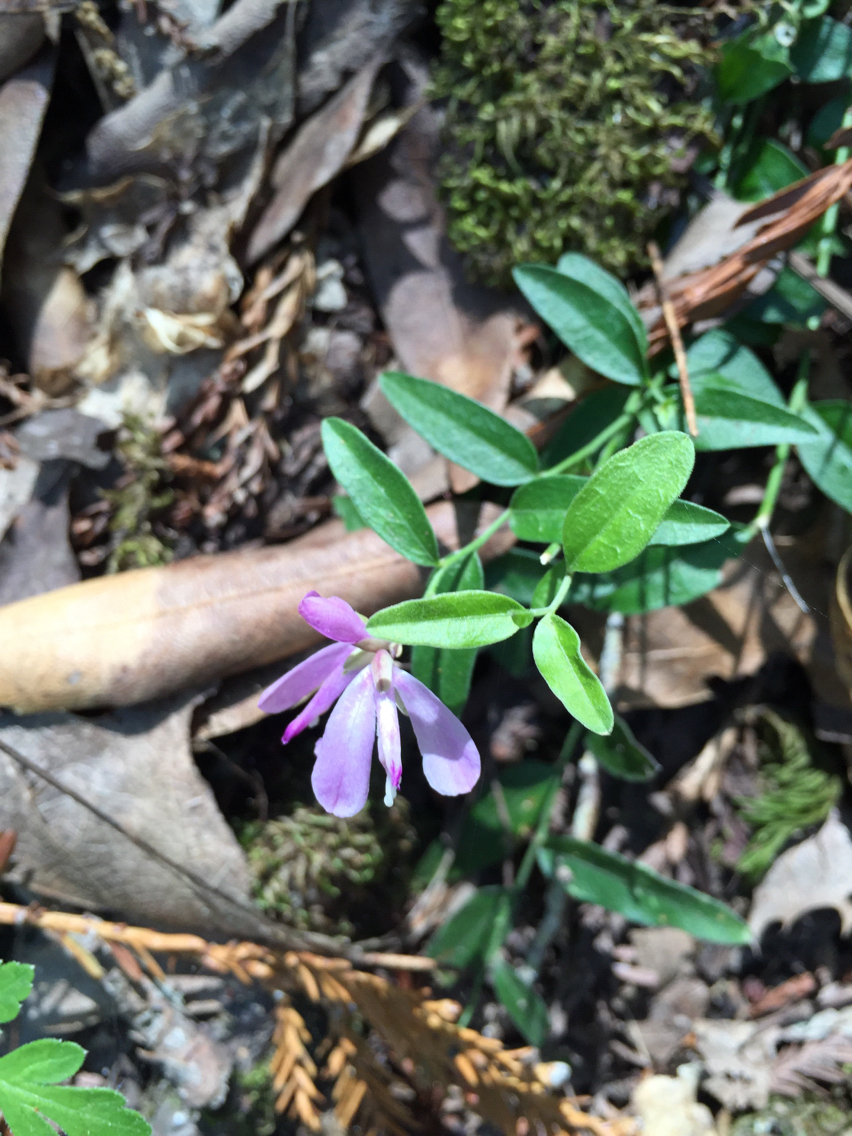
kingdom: Plantae
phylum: Tracheophyta
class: Magnoliopsida
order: Fabales
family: Polygalaceae
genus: Rhinotropis
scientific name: Rhinotropis californica
